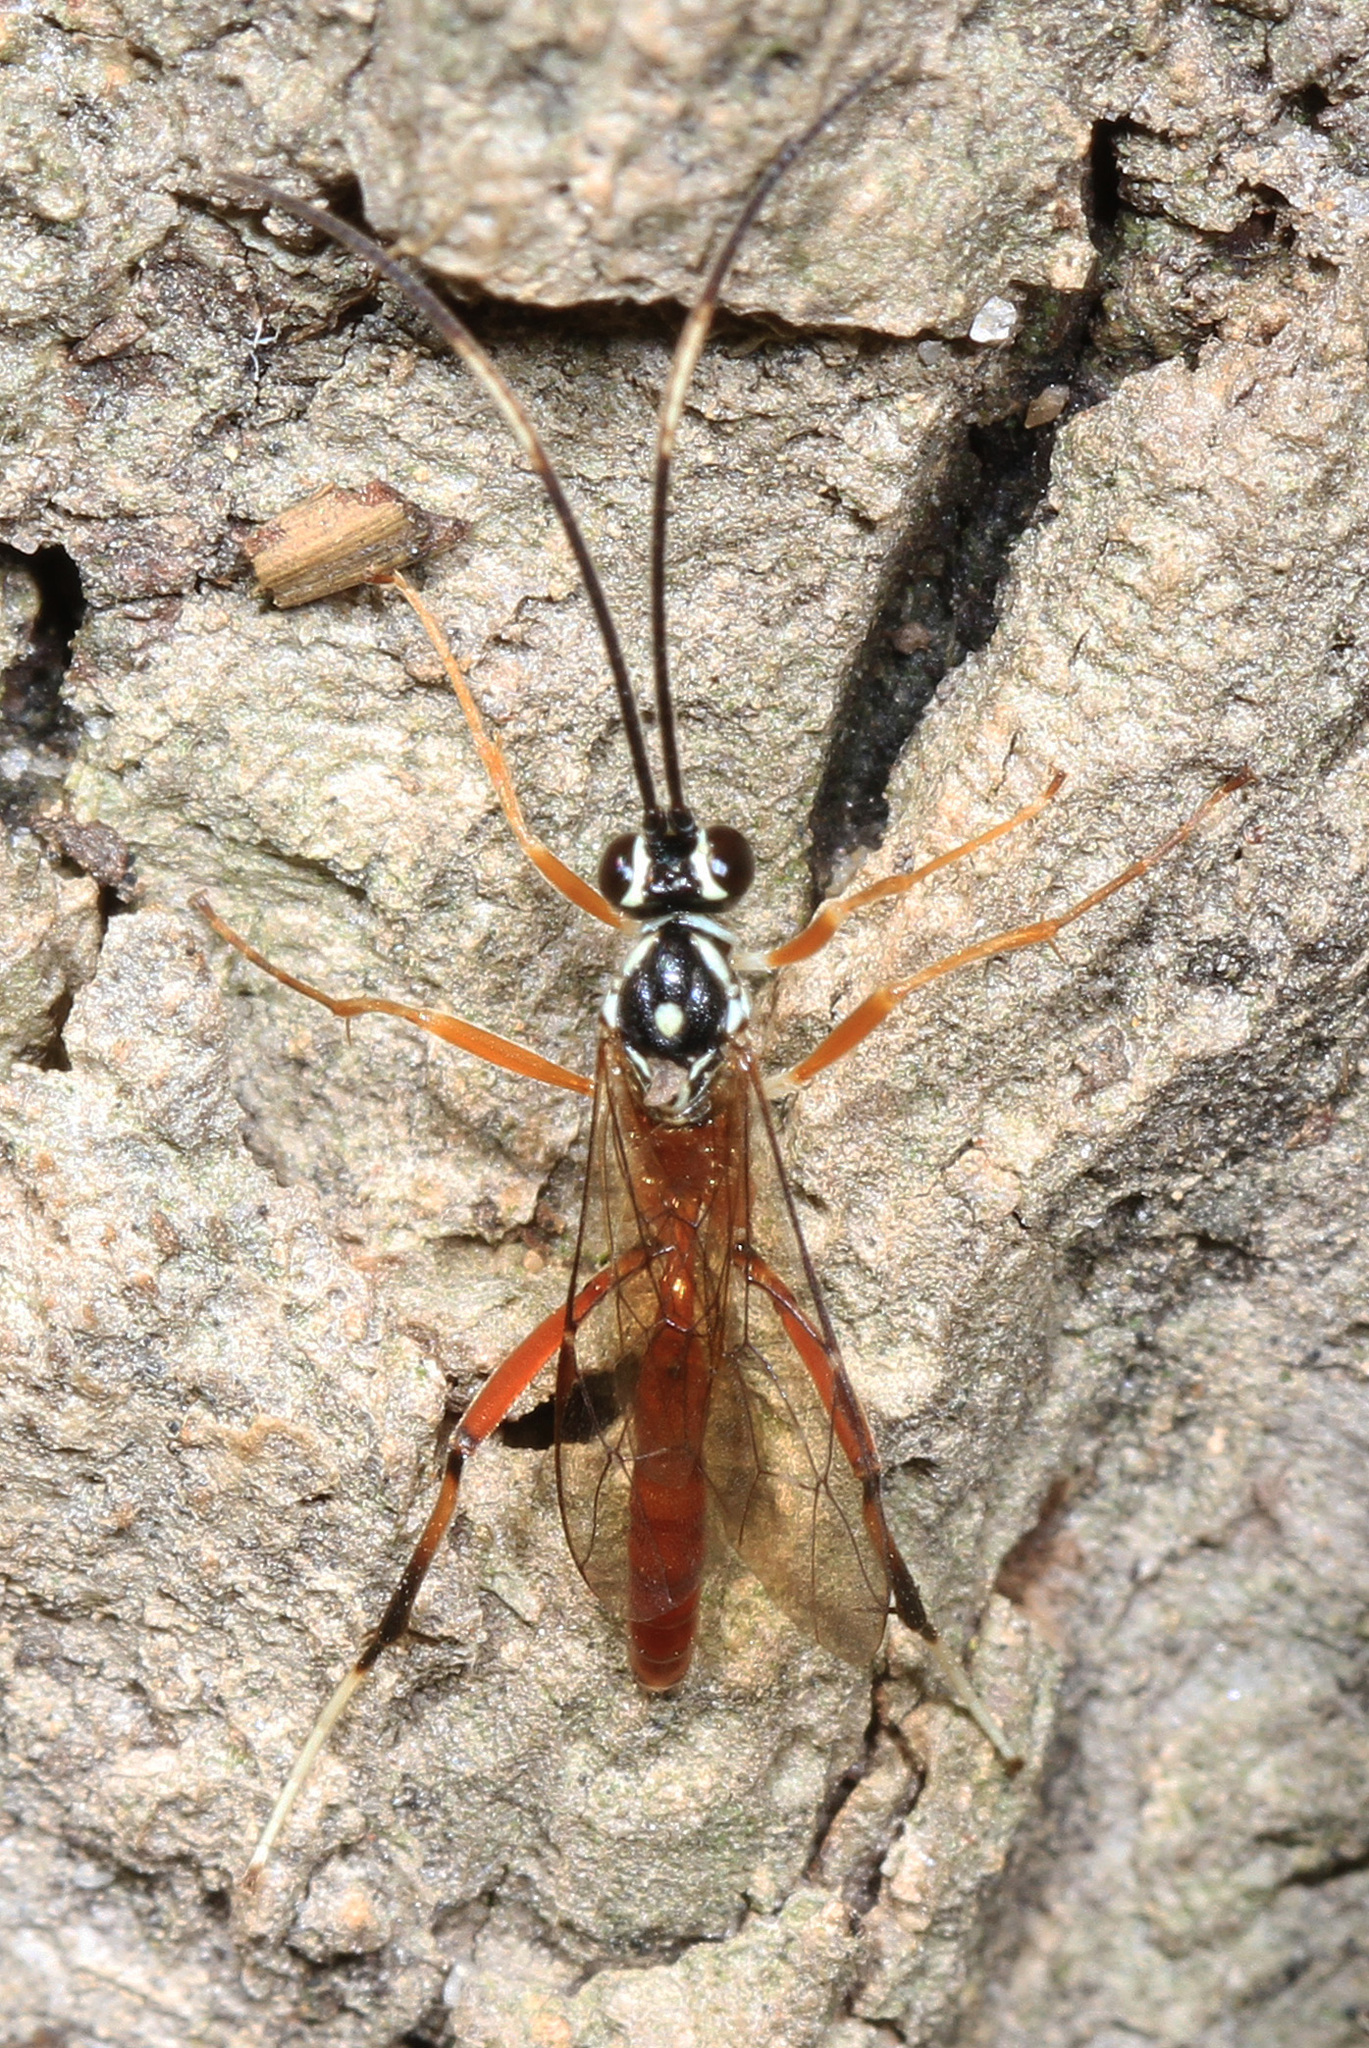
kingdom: Animalia
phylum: Arthropoda
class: Insecta
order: Hymenoptera
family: Ichneumonidae
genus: Mesostenus
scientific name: Mesostenus thoracicus
